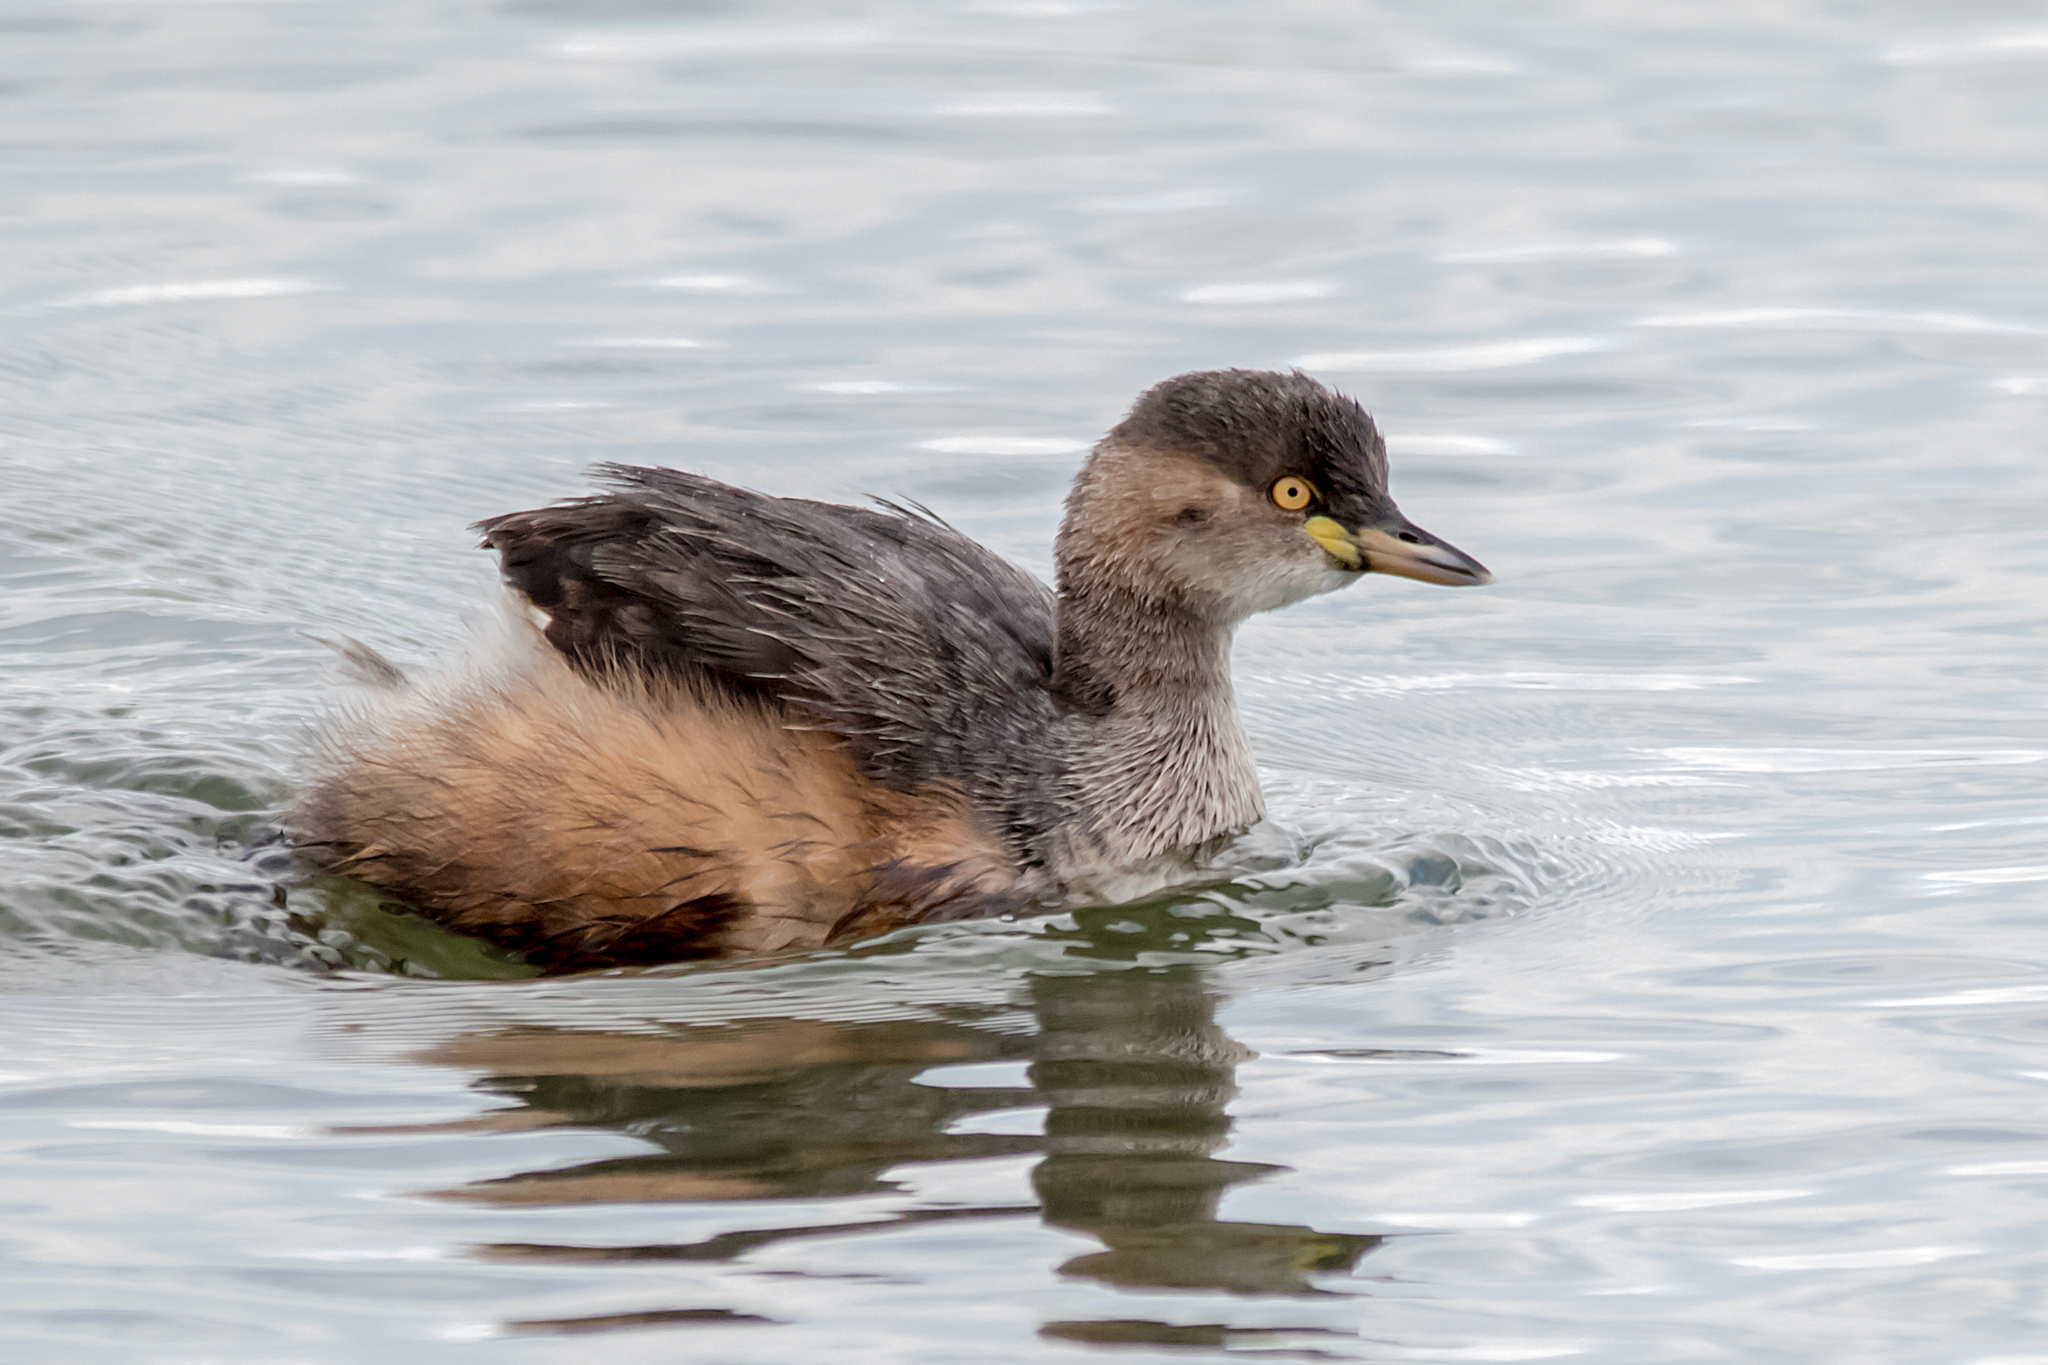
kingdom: Animalia
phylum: Chordata
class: Aves
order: Podicipediformes
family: Podicipedidae
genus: Tachybaptus
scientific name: Tachybaptus novaehollandiae
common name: Australasian grebe
